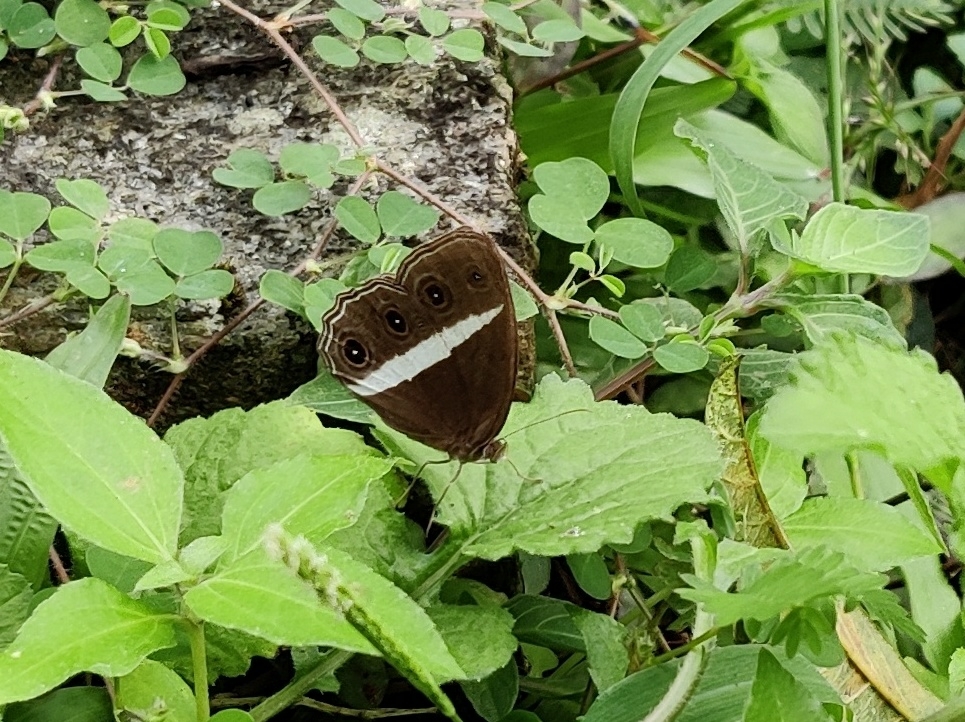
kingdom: Animalia
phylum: Arthropoda
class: Insecta
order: Lepidoptera
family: Nymphalidae
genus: Orsotriaena
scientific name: Orsotriaena medus
